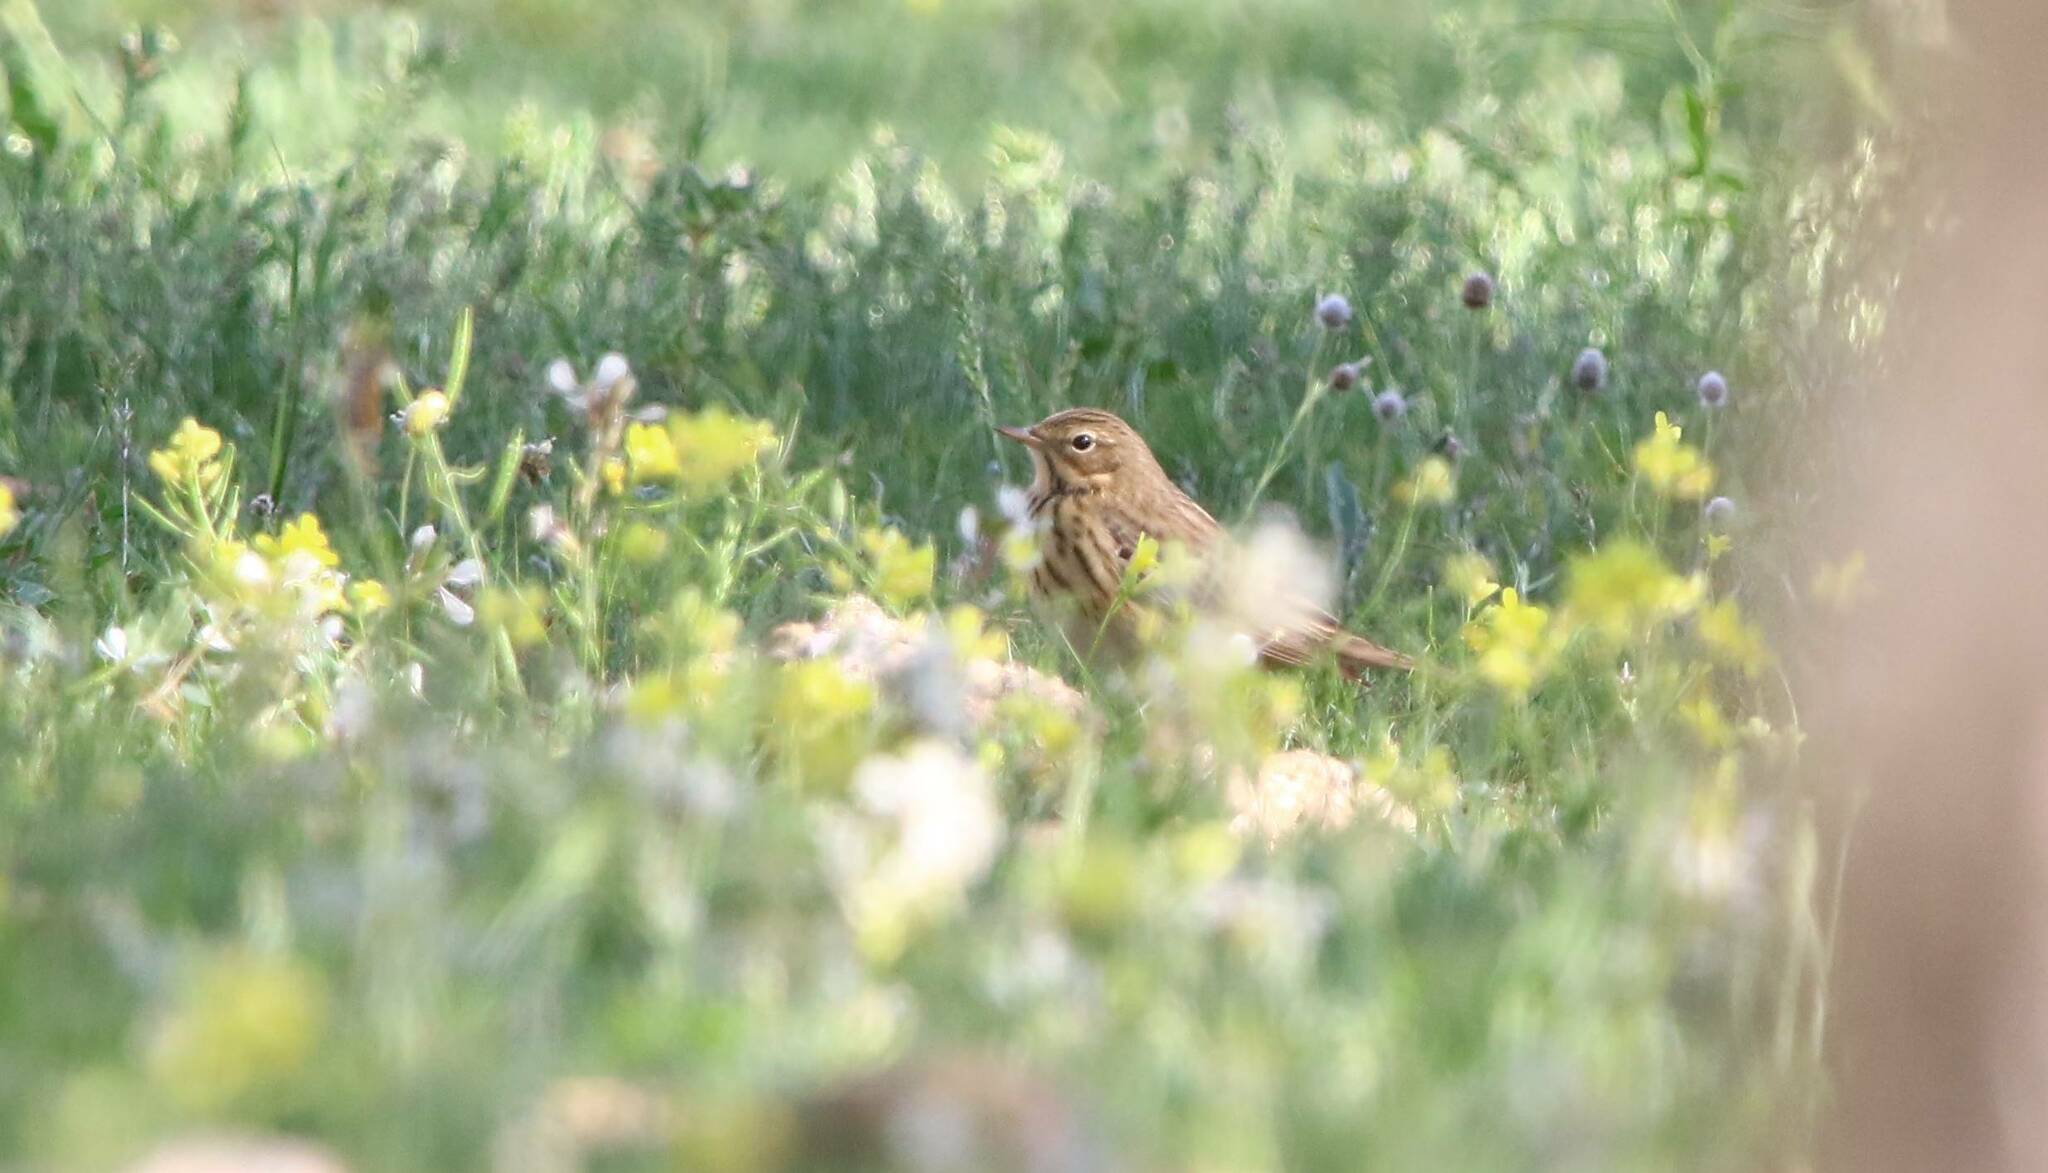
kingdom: Animalia
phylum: Chordata
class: Aves
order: Passeriformes
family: Motacillidae
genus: Anthus
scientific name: Anthus pratensis
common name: Meadow pipit
